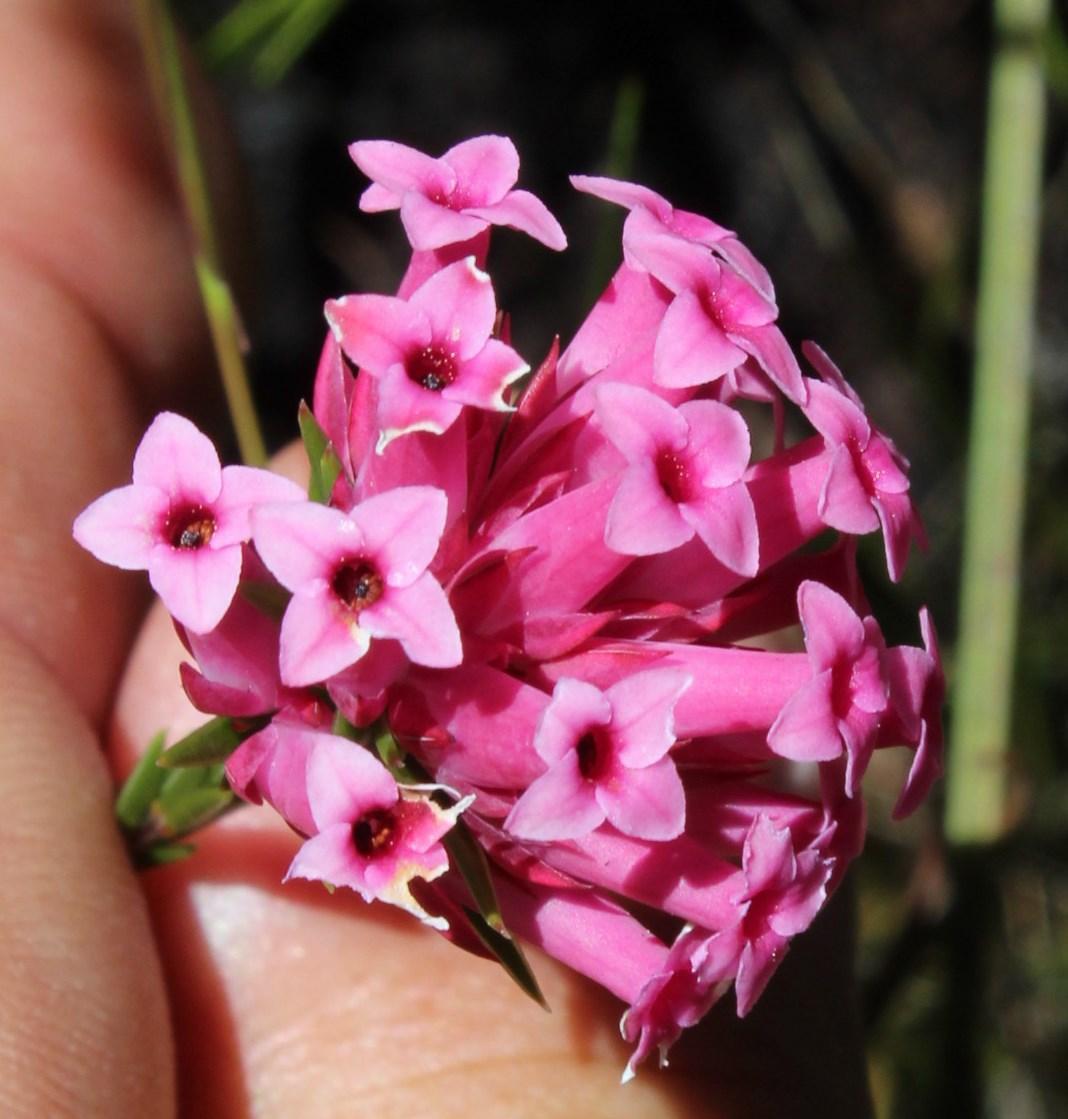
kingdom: Plantae
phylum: Tracheophyta
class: Magnoliopsida
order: Ericales
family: Ericaceae
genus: Erica
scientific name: Erica pycnantha
